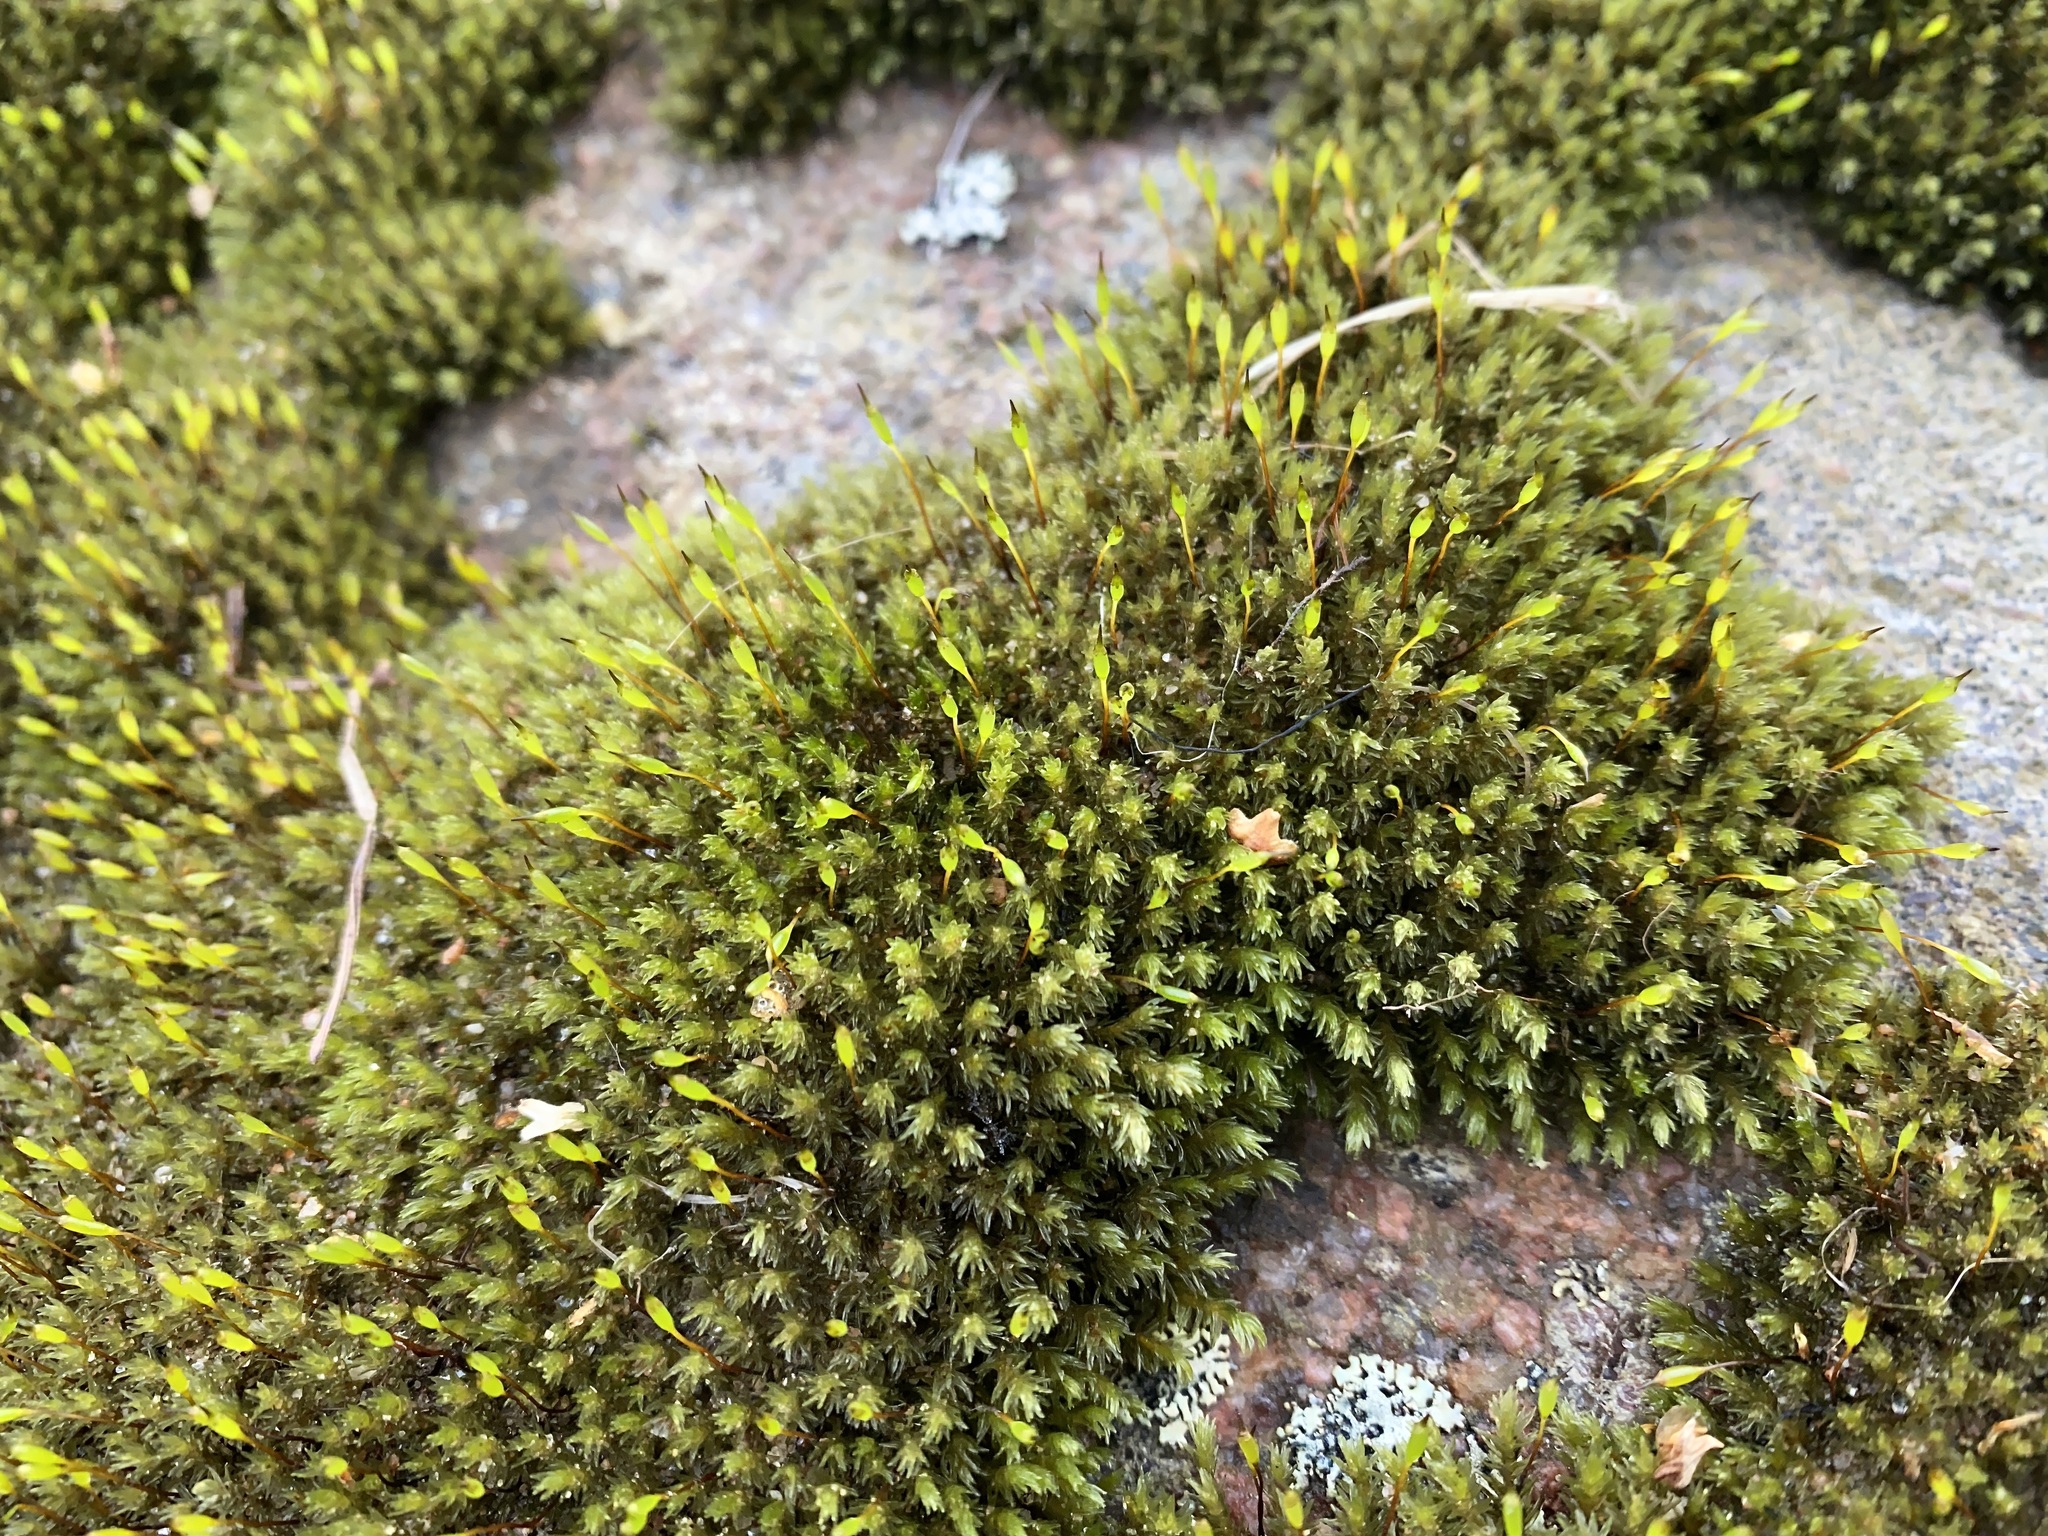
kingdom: Plantae
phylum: Bryophyta
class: Bryopsida
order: Grimmiales
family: Grimmiaceae
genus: Codriophorus
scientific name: Codriophorus acicularis
